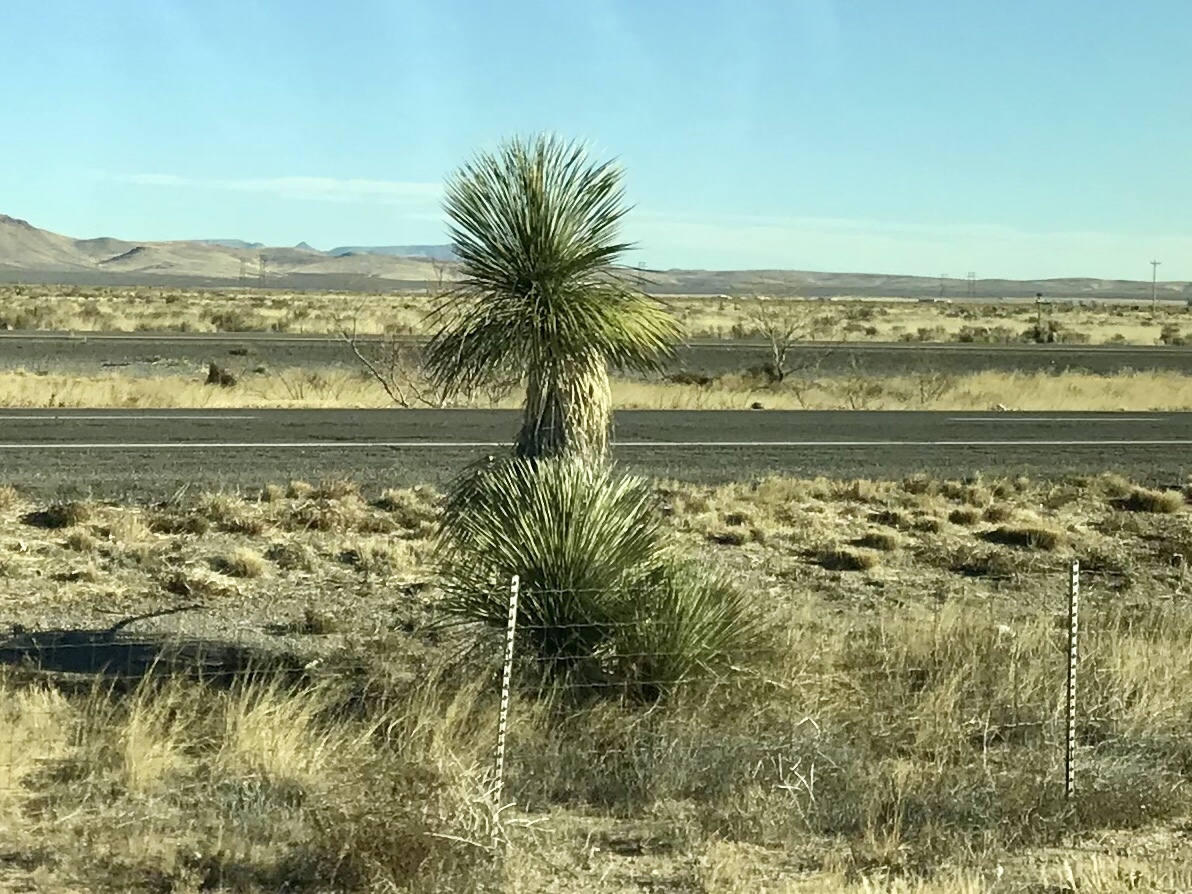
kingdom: Plantae
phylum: Tracheophyta
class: Liliopsida
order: Asparagales
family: Asparagaceae
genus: Yucca
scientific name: Yucca elata
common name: Palmella
